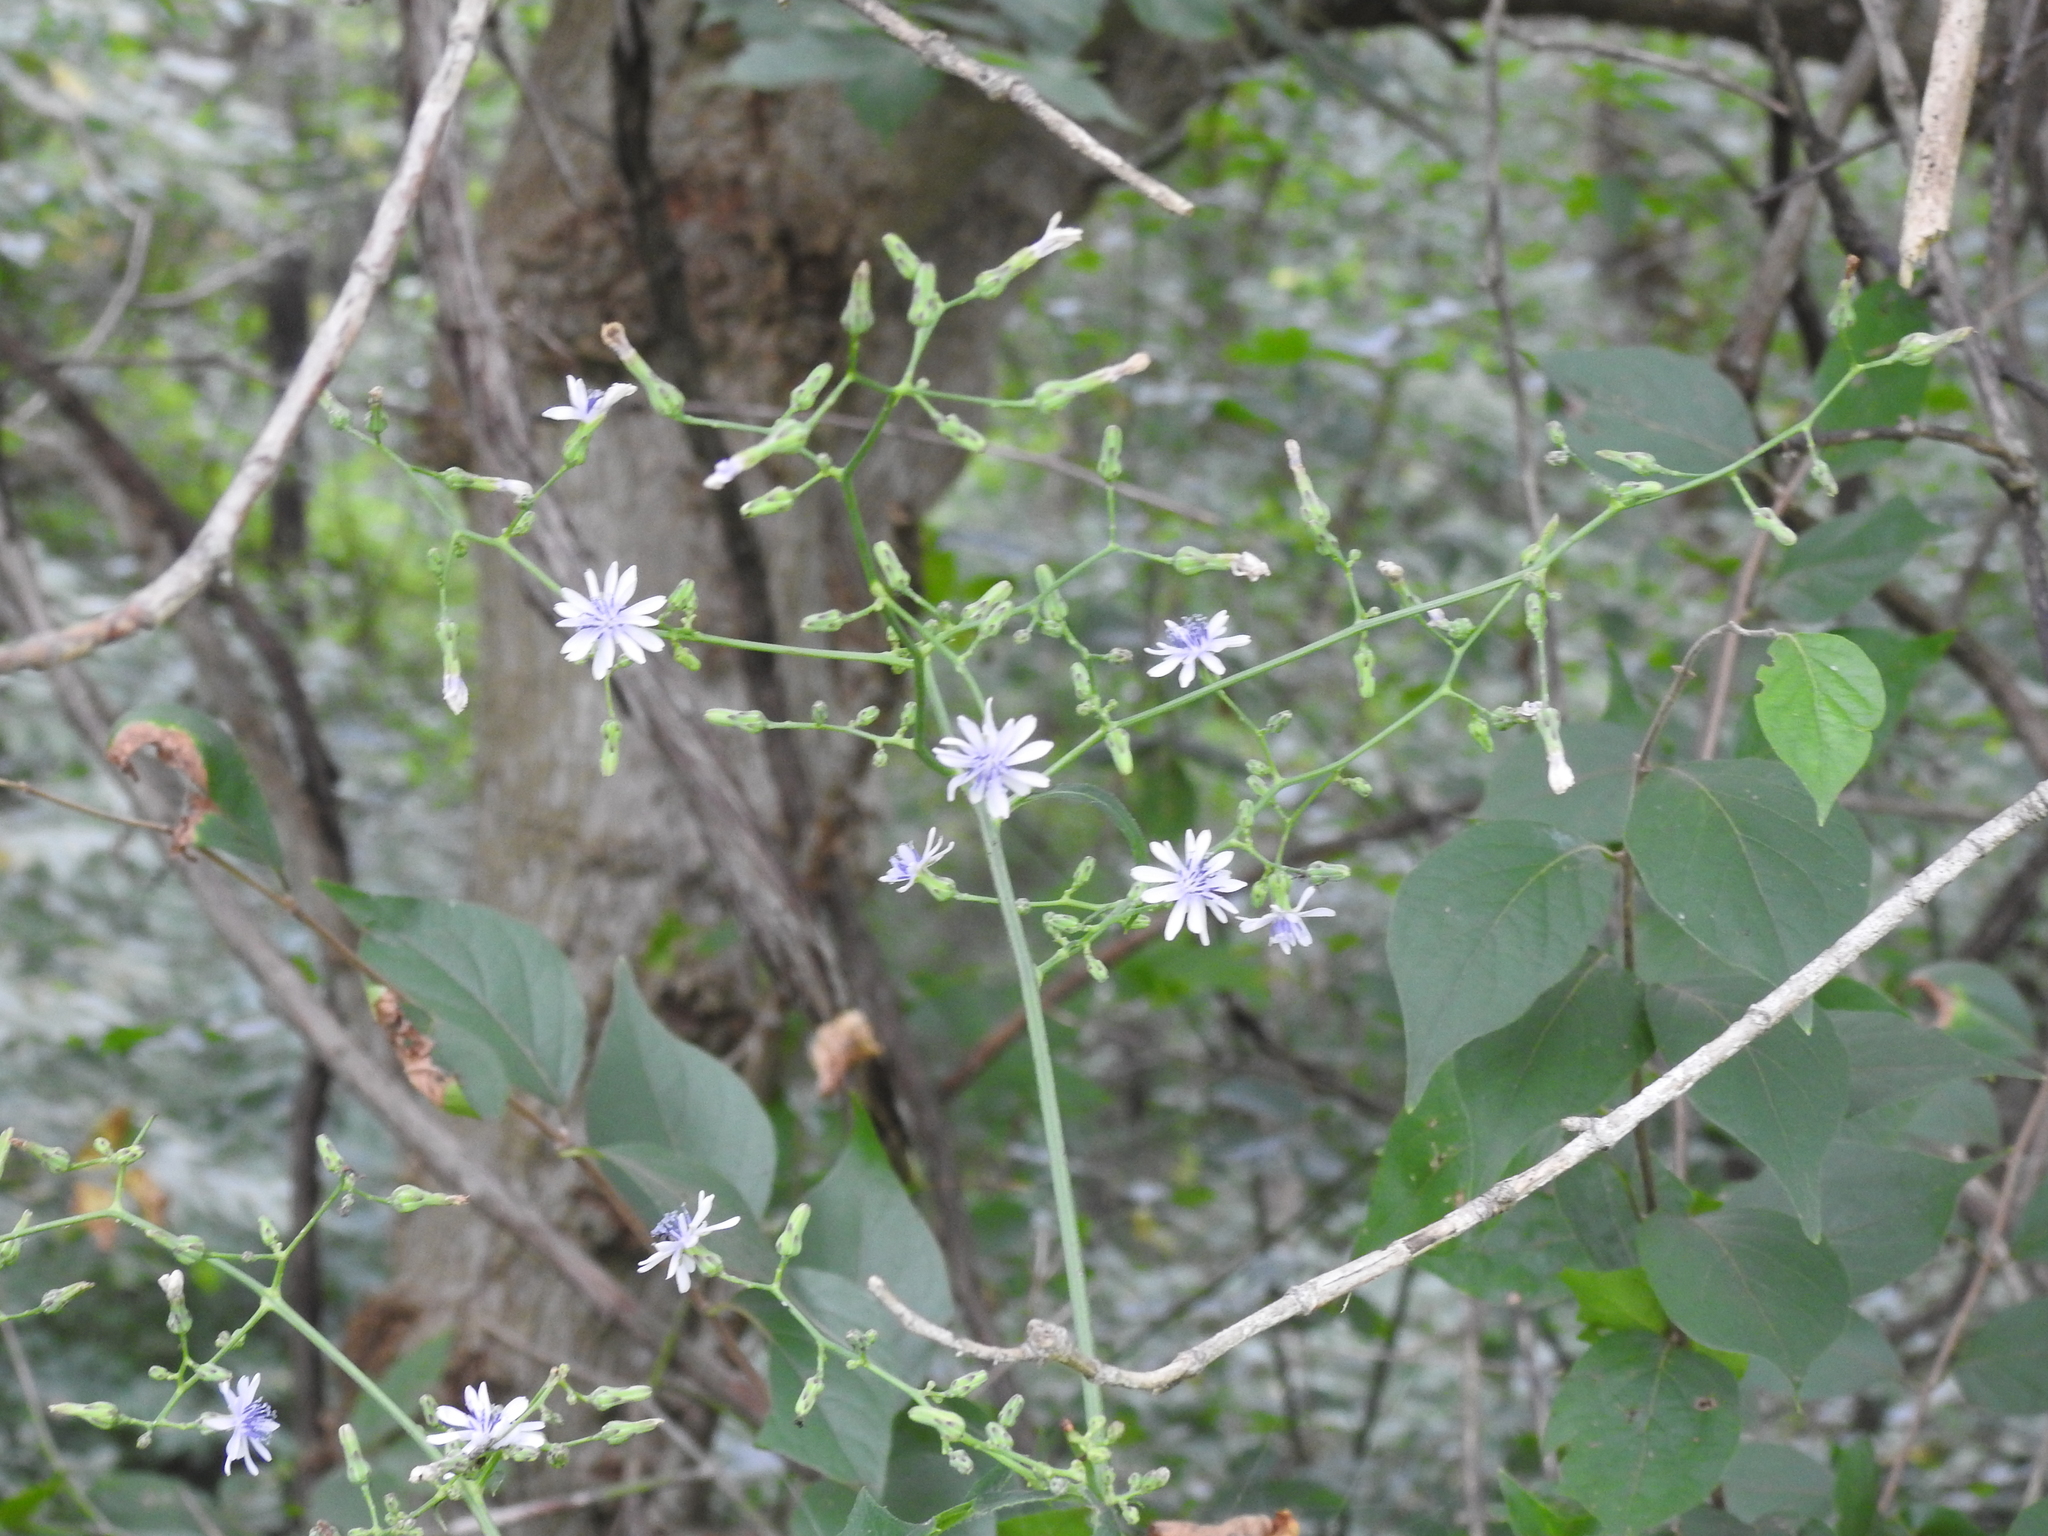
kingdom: Plantae
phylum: Tracheophyta
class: Magnoliopsida
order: Asterales
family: Asteraceae
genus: Lactuca
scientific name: Lactuca floridana
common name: Woodland lettuce
